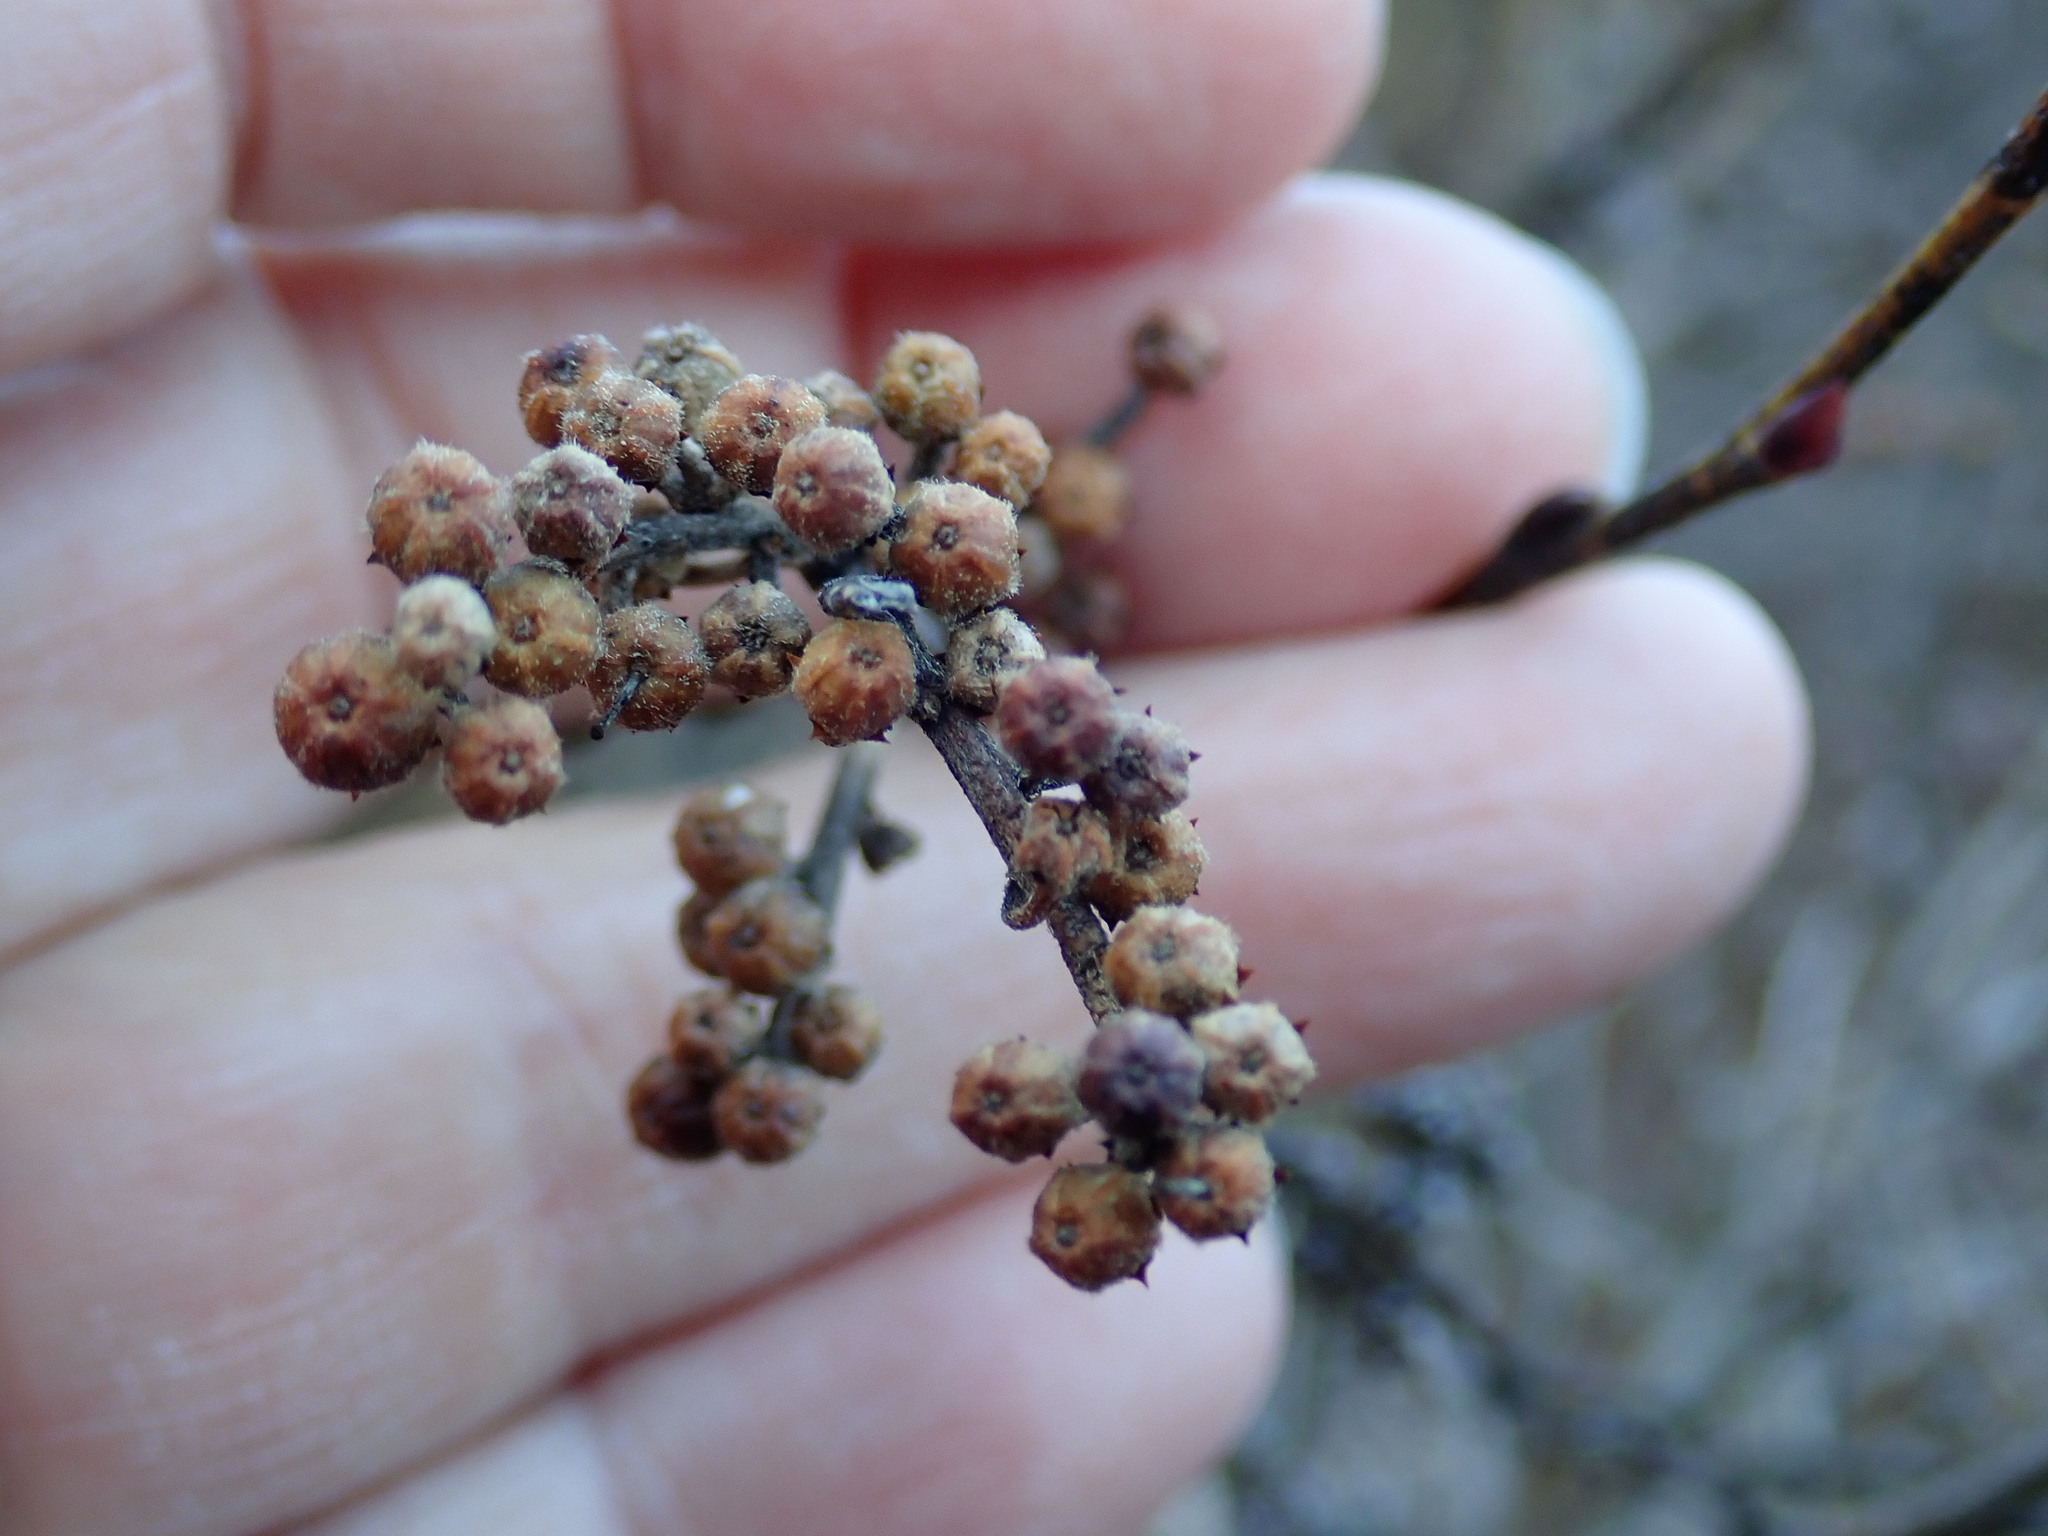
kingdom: Plantae
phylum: Tracheophyta
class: Magnoliopsida
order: Ericales
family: Ericaceae
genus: Lyonia
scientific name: Lyonia ligustrina
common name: Maleberry
